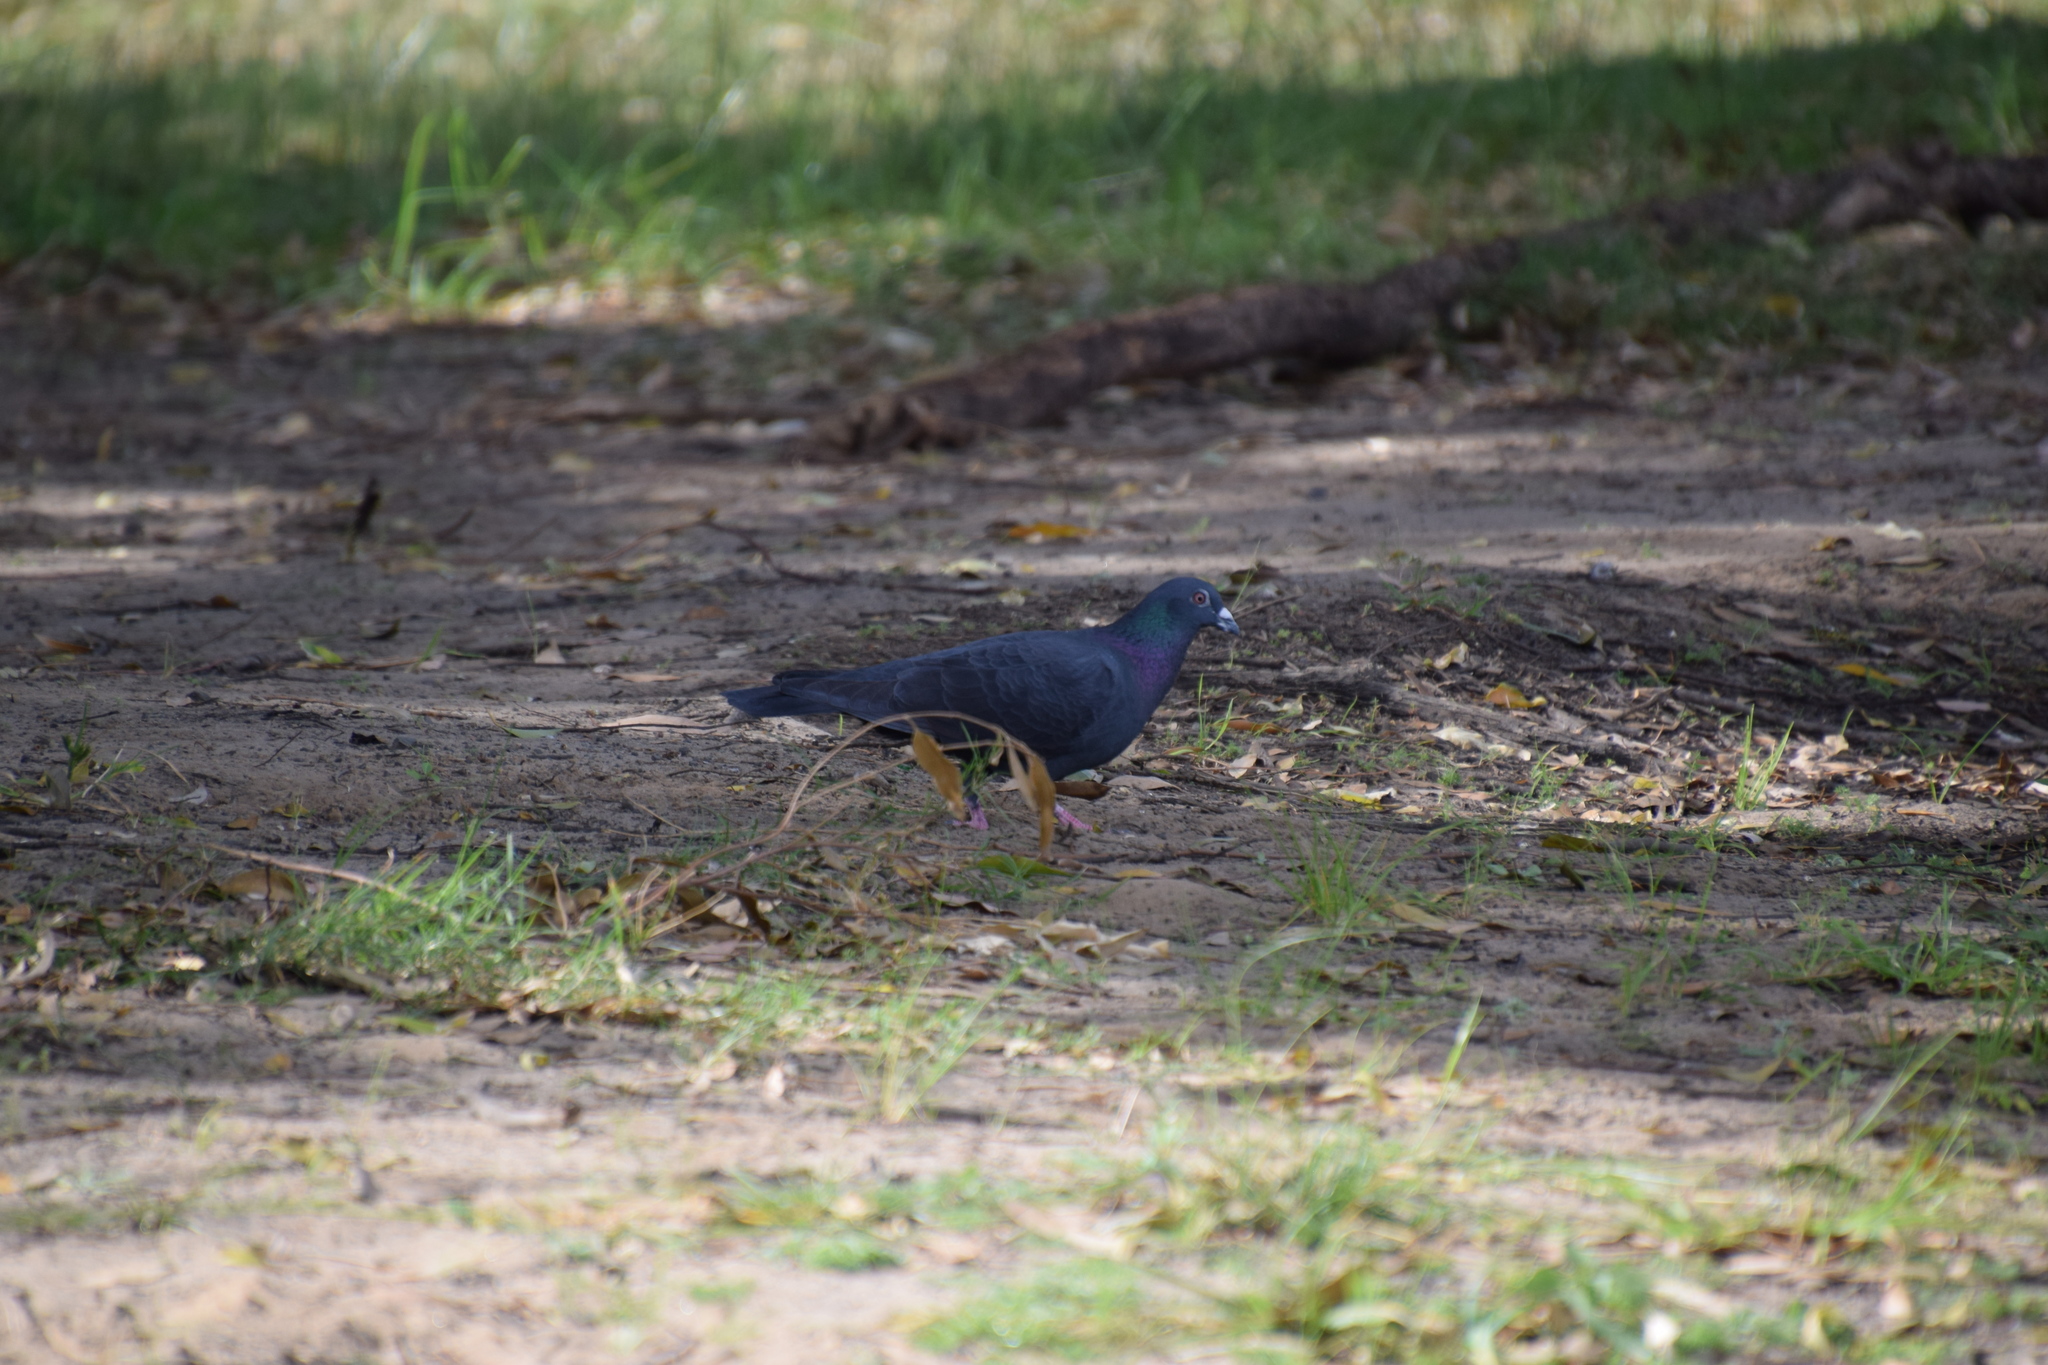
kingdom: Animalia
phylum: Chordata
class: Aves
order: Columbiformes
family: Columbidae
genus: Columba
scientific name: Columba livia
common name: Rock pigeon
